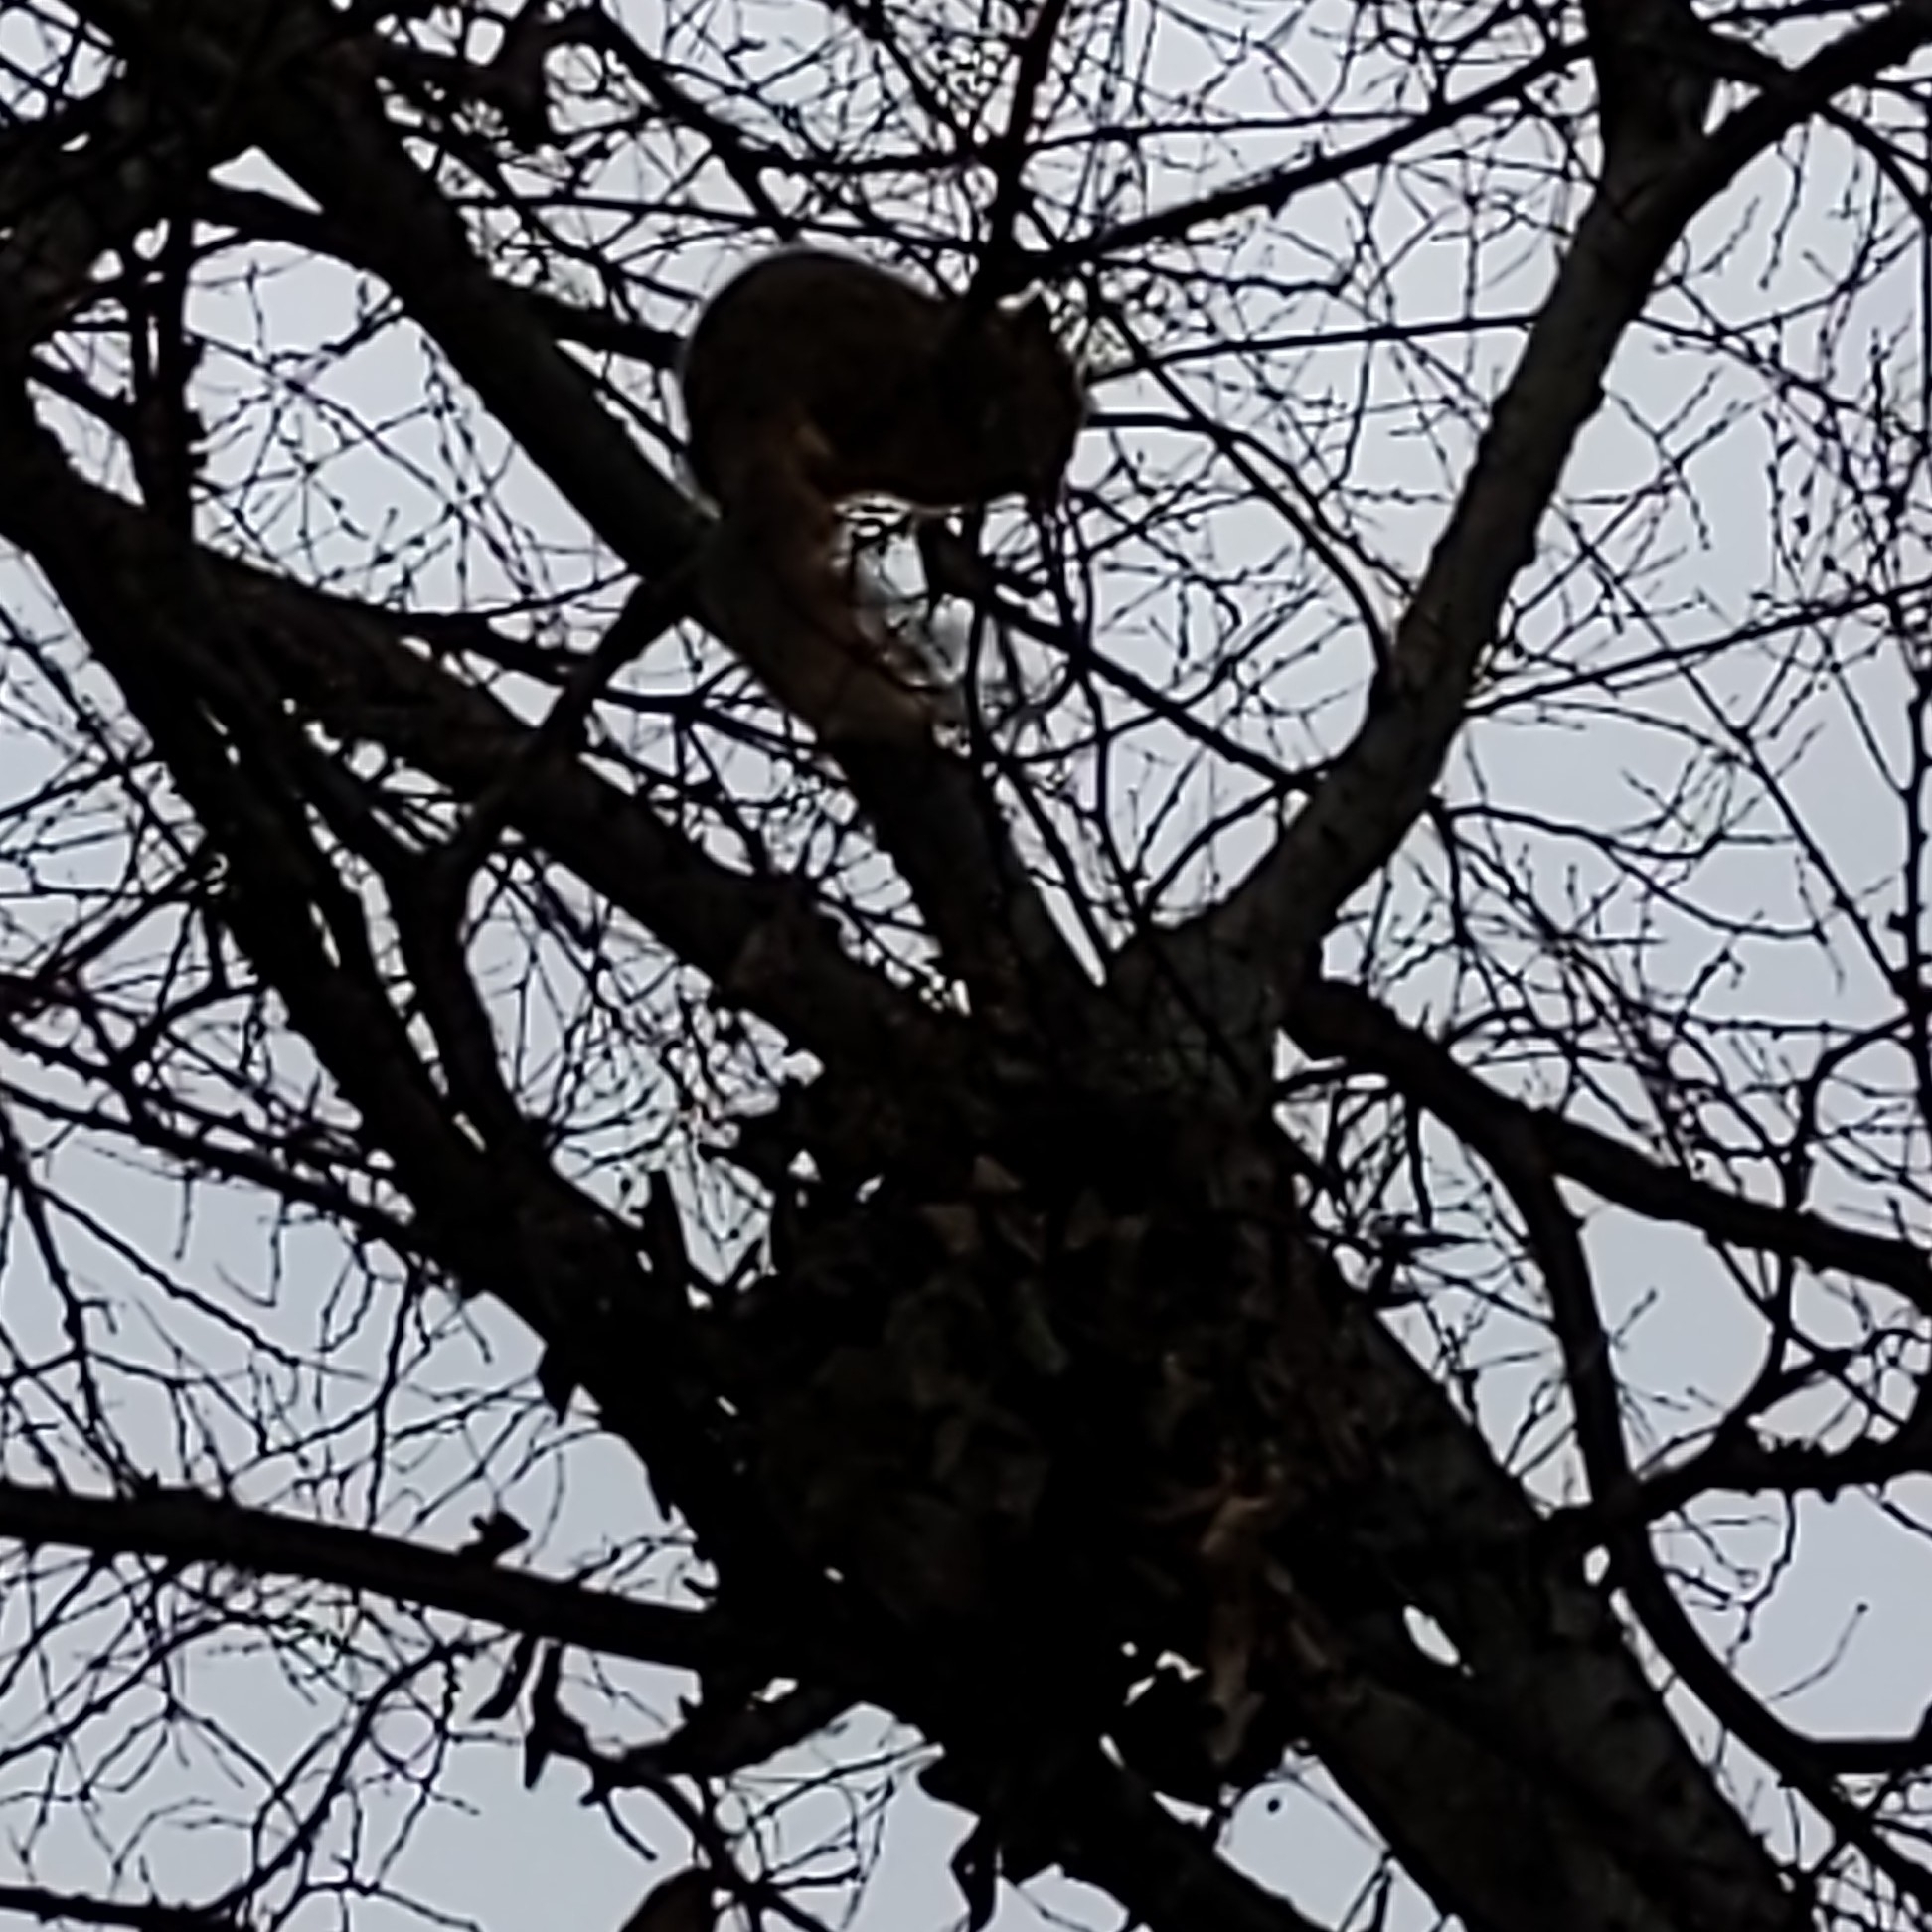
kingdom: Animalia
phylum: Chordata
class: Mammalia
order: Rodentia
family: Sciuridae
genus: Sciurus
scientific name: Sciurus niger
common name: Fox squirrel
